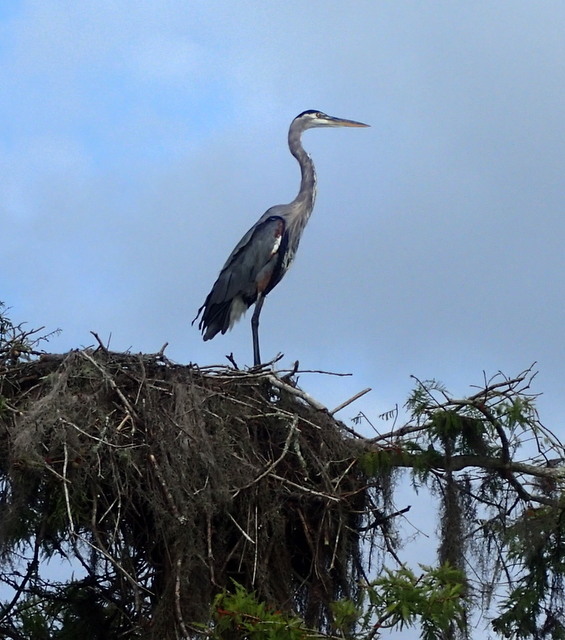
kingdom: Animalia
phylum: Chordata
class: Aves
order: Pelecaniformes
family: Ardeidae
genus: Ardea
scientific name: Ardea herodias
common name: Great blue heron
